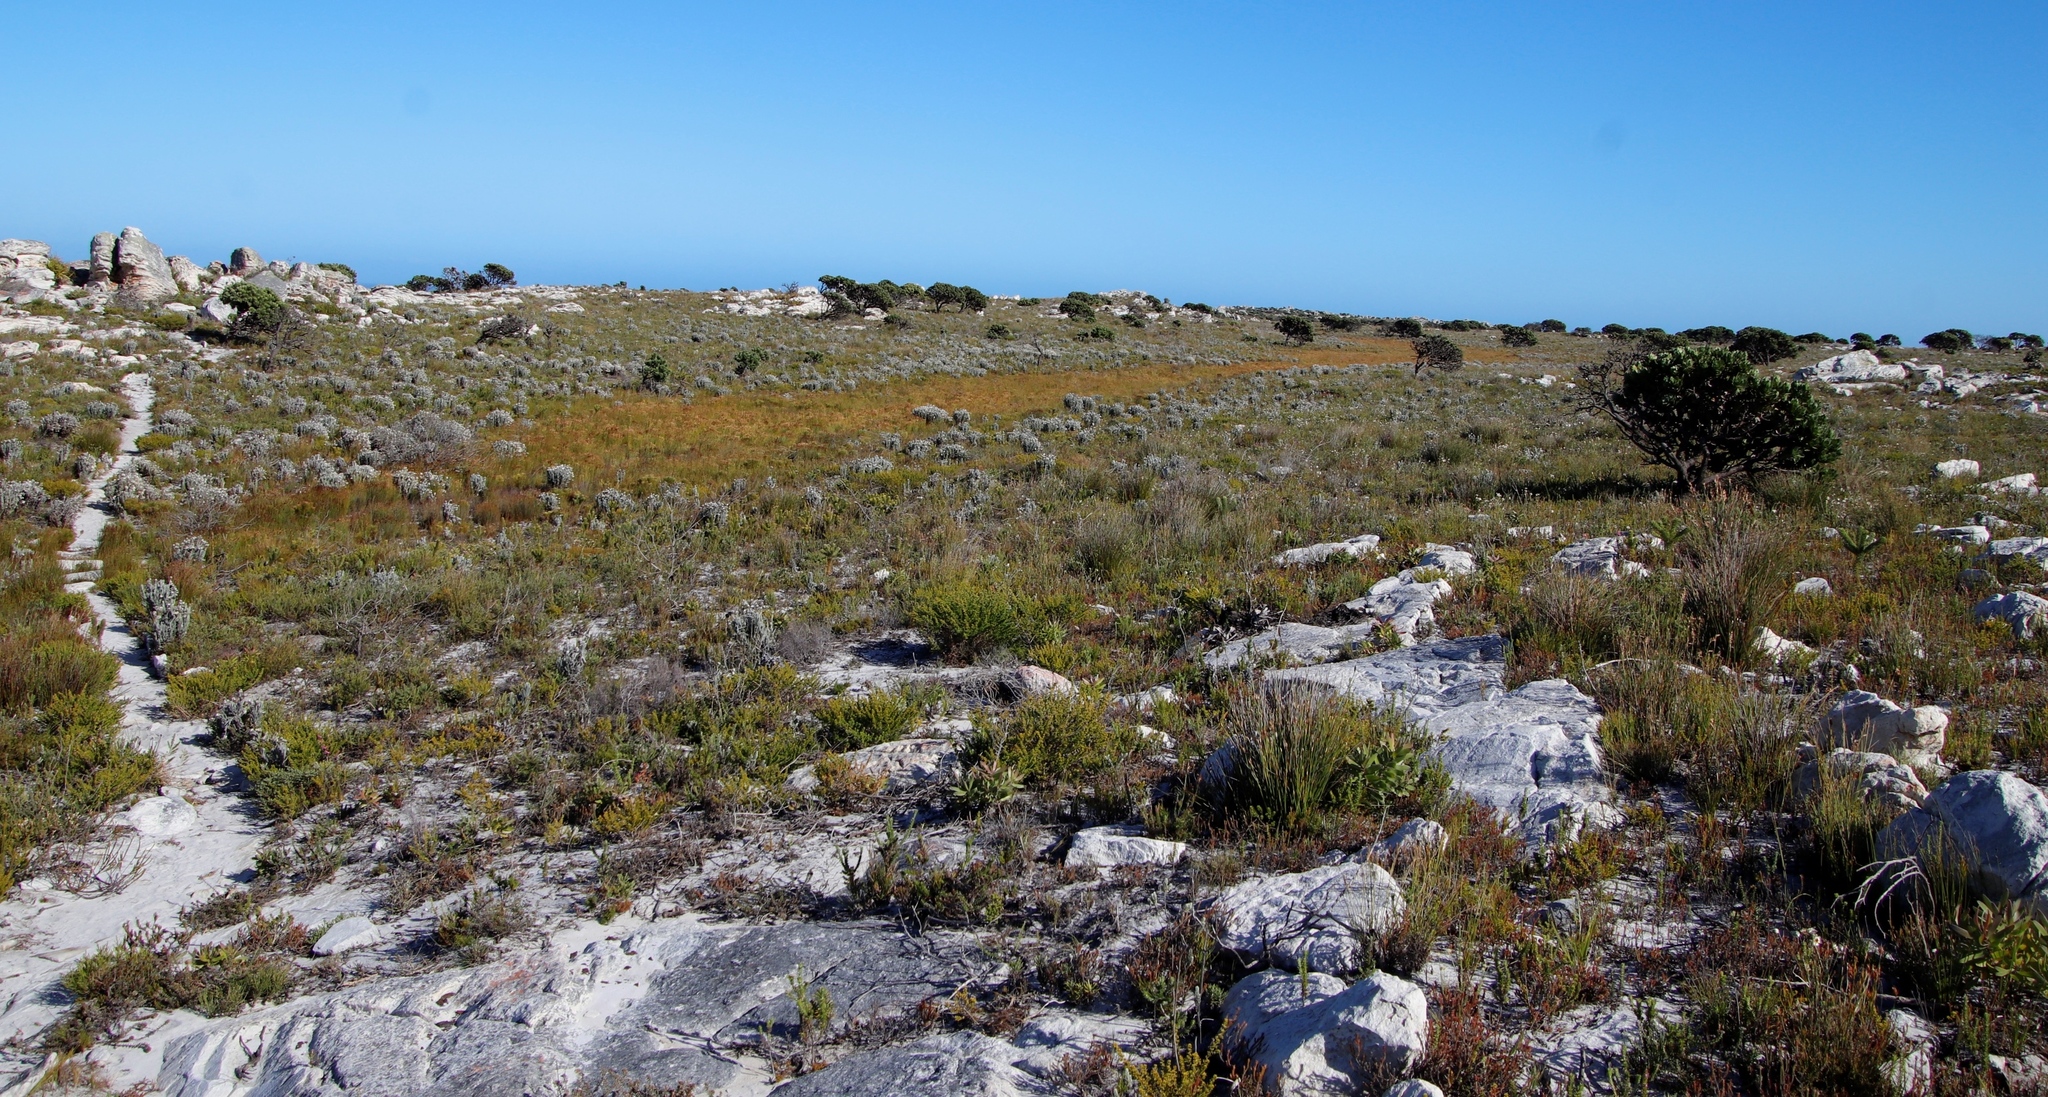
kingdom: Plantae
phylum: Tracheophyta
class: Magnoliopsida
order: Asterales
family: Asteraceae
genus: Syncarpha
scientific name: Syncarpha vestita
